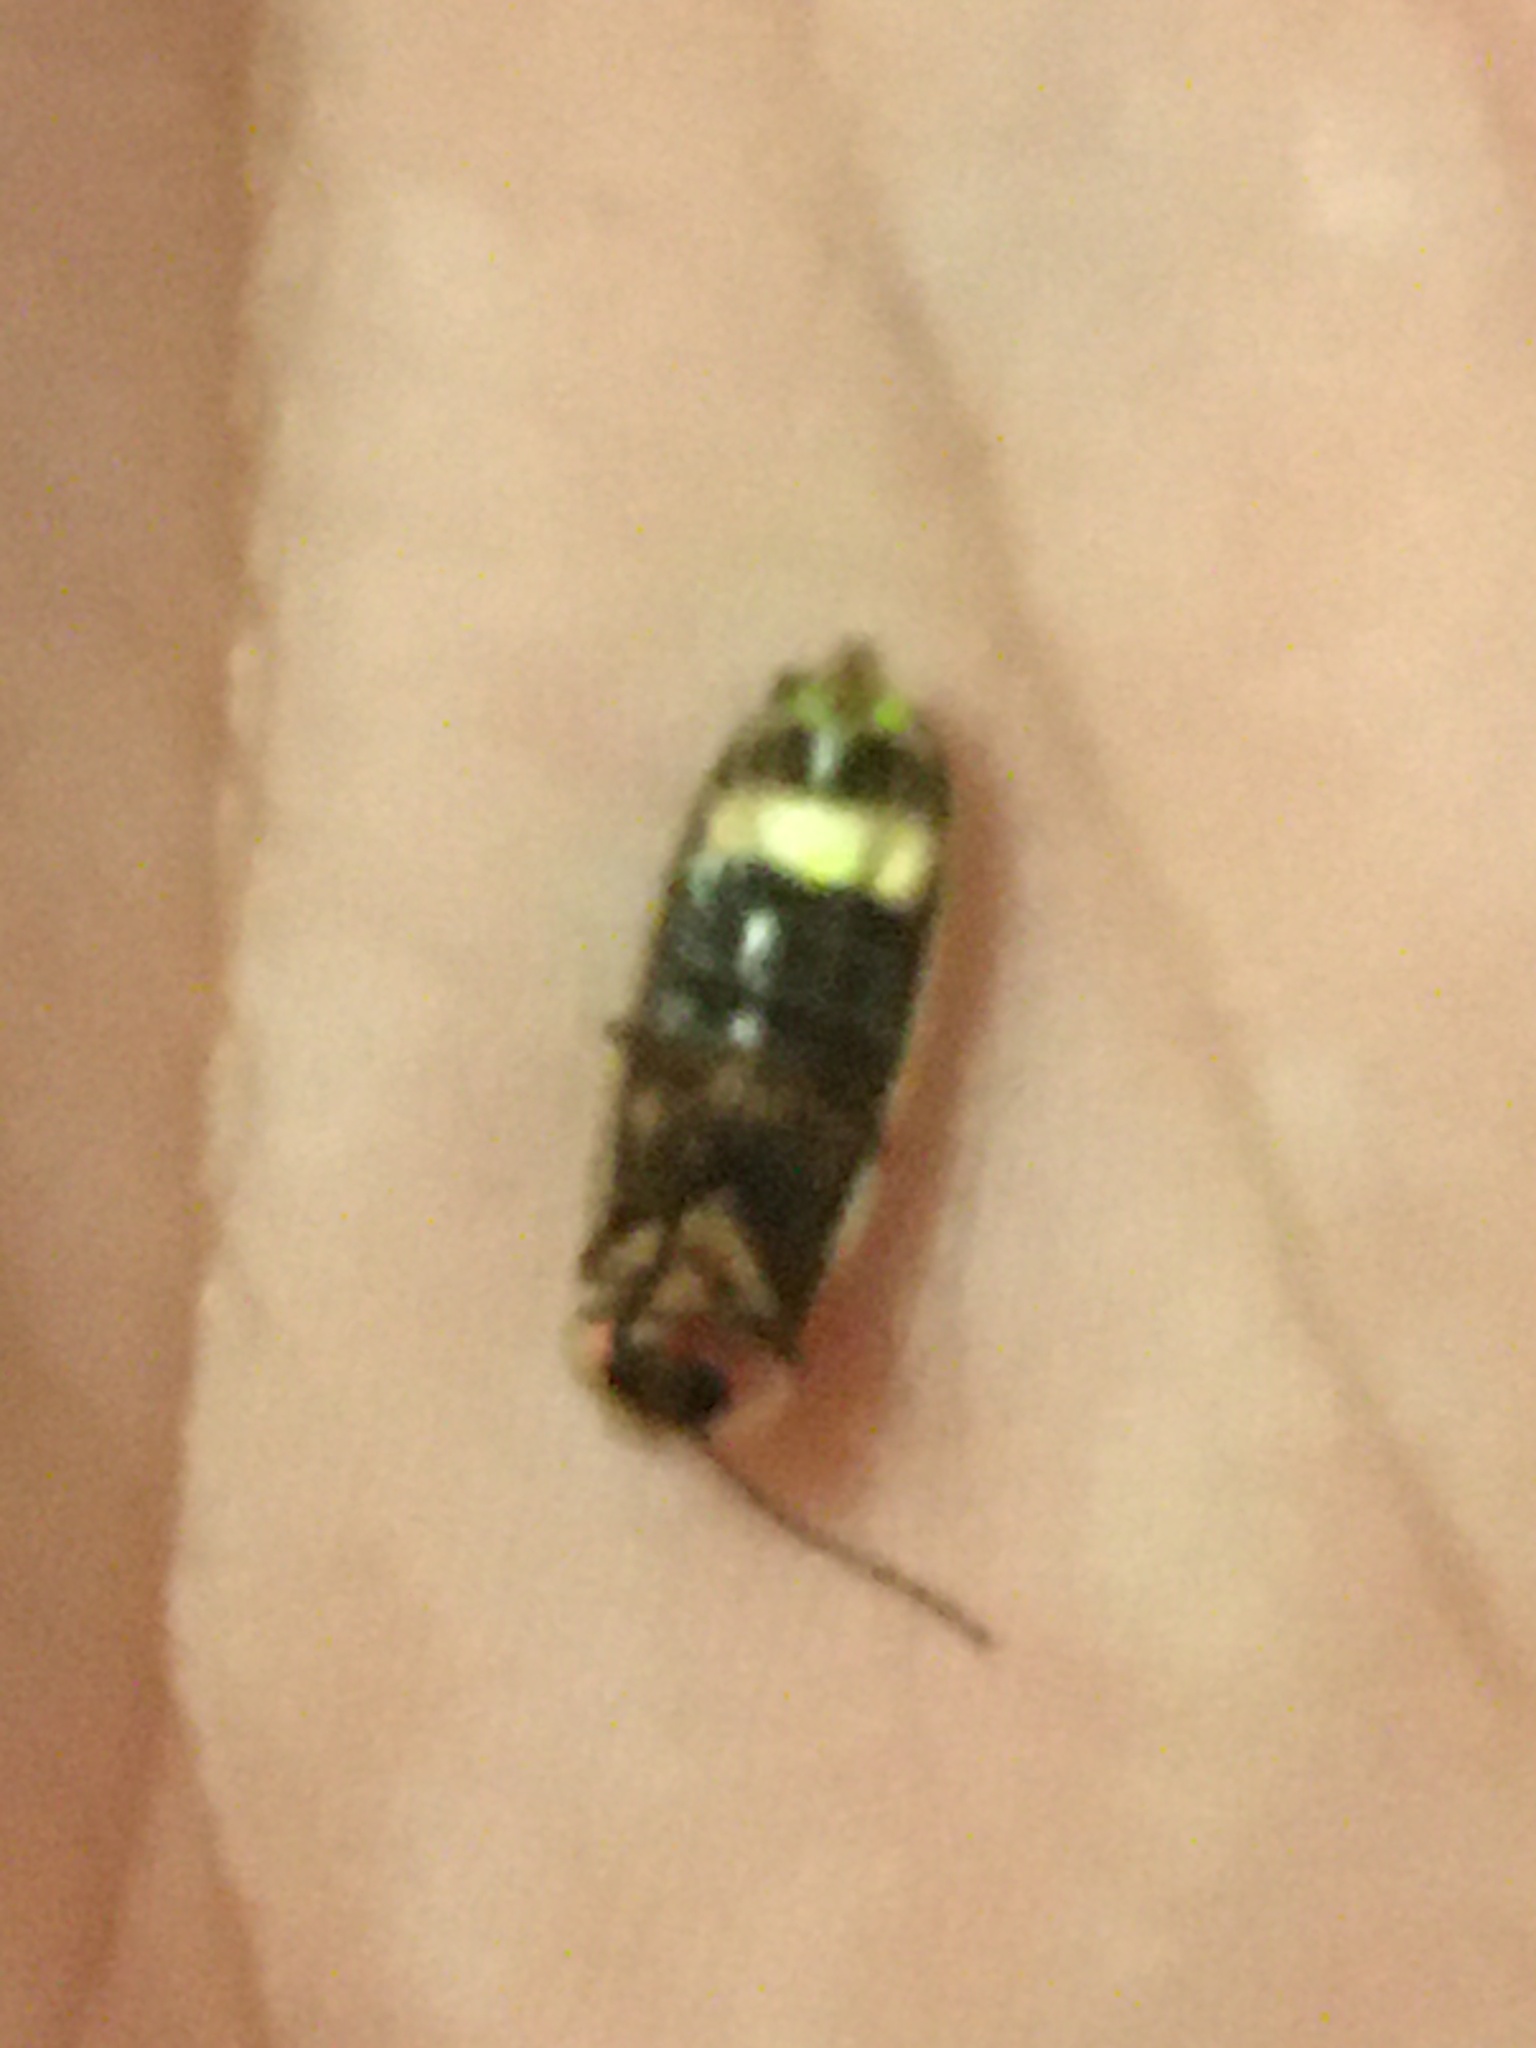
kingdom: Animalia
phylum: Arthropoda
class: Insecta
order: Coleoptera
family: Lampyridae
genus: Photinus
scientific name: Photinus pyralis
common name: Big dipper firefly
